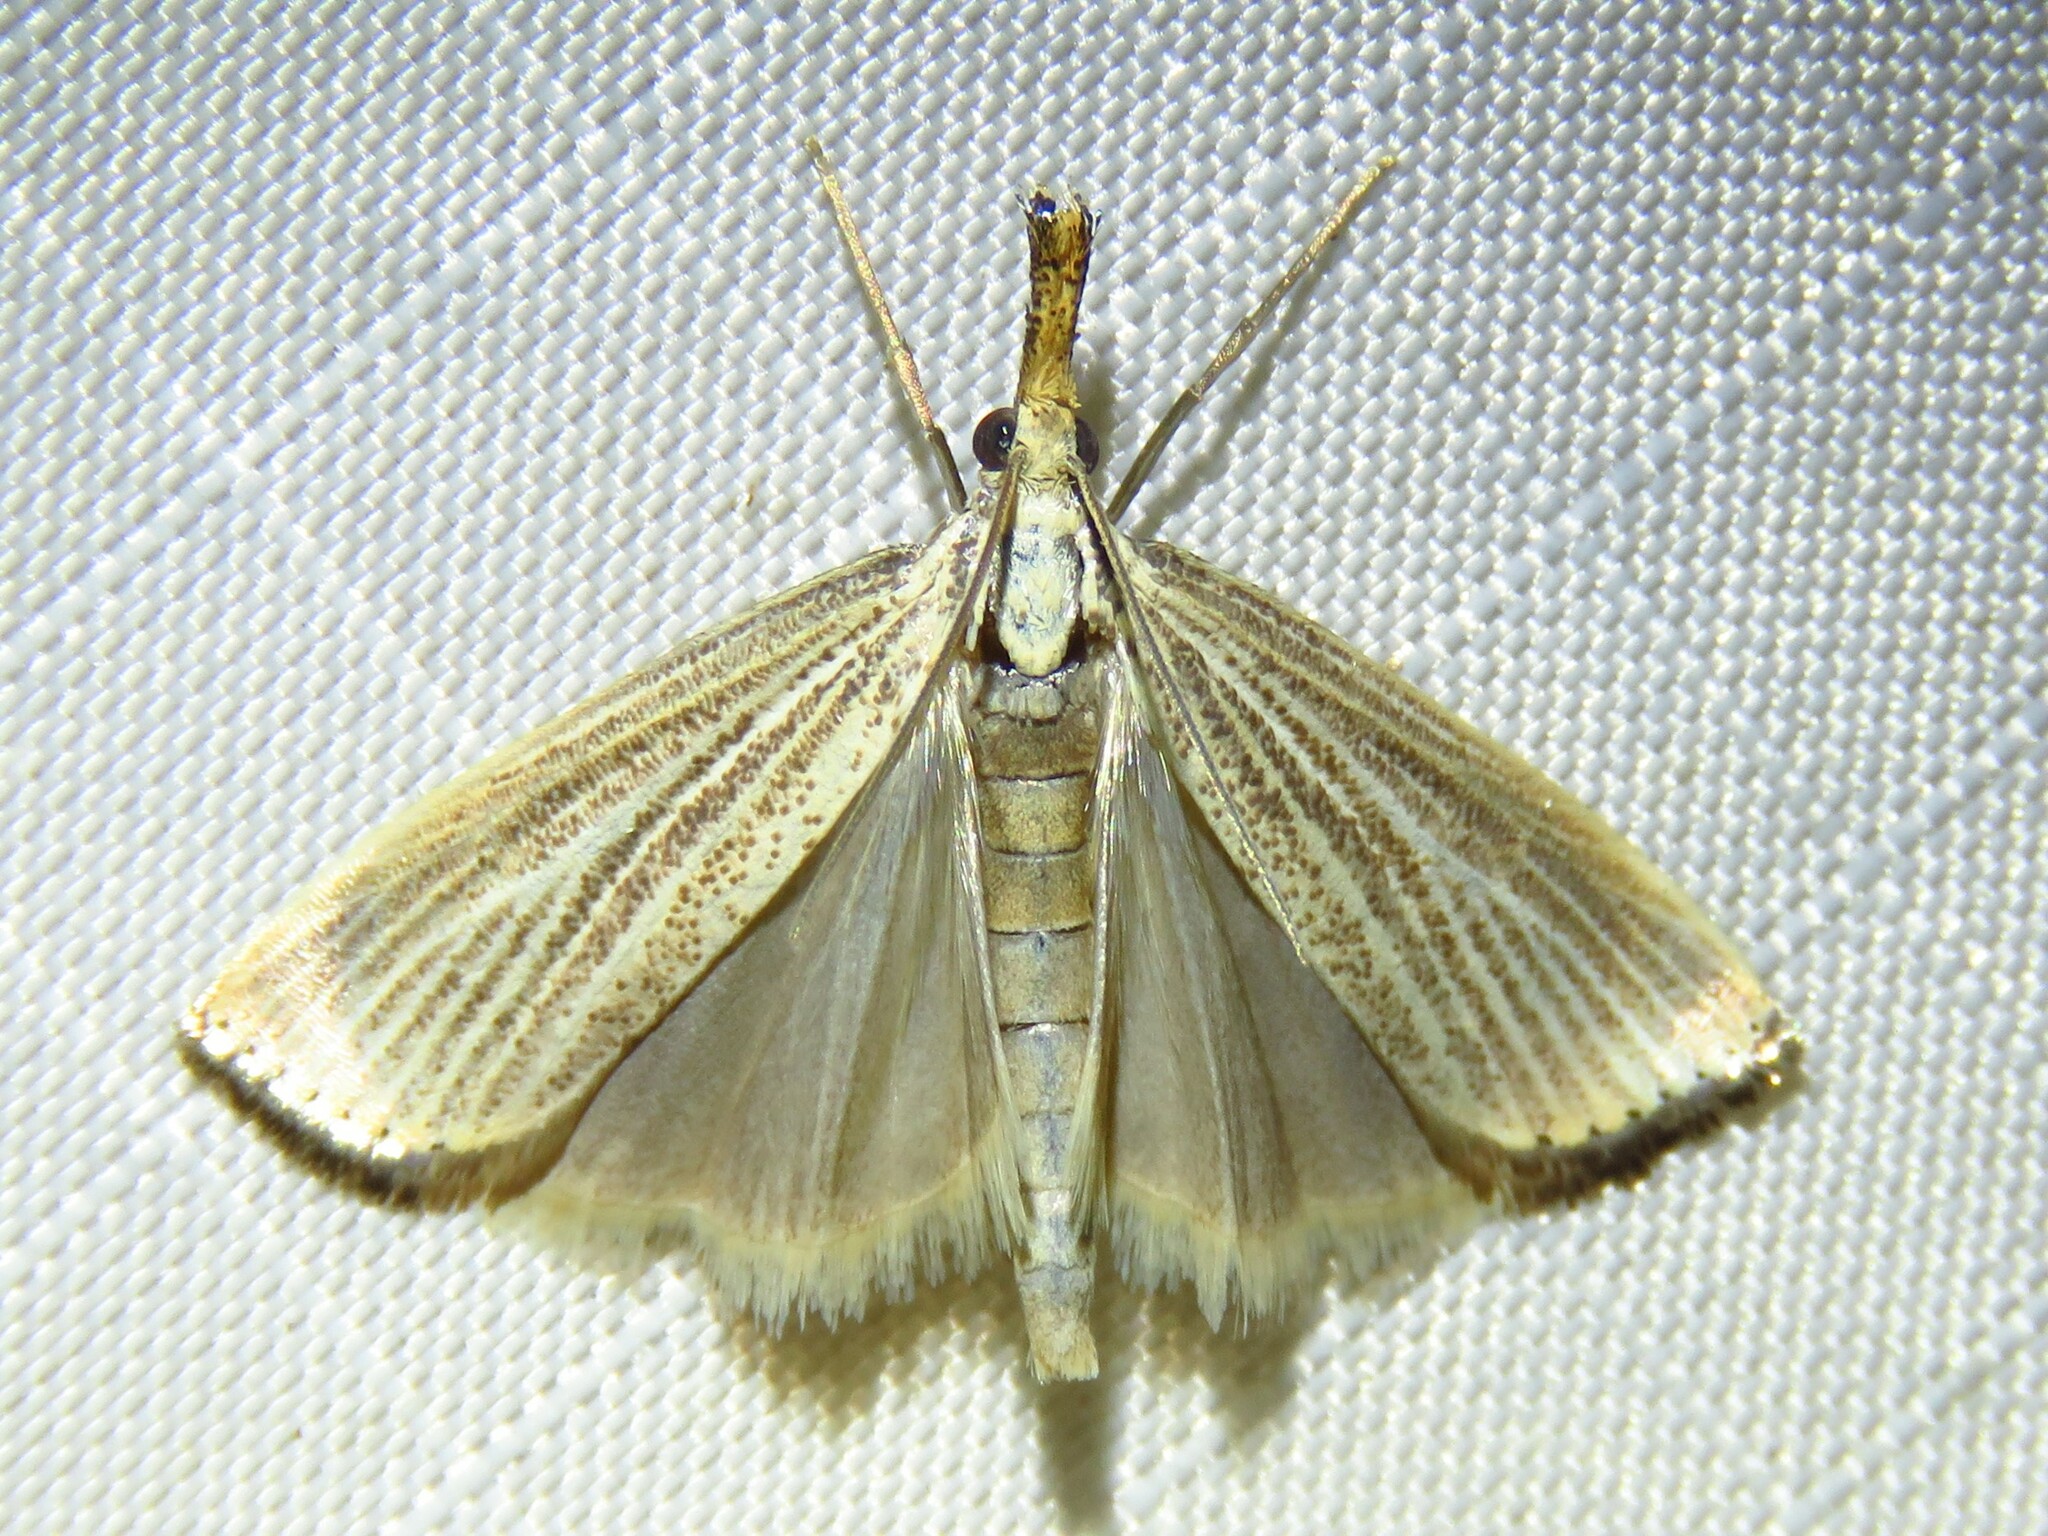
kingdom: Animalia
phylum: Arthropoda
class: Insecta
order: Lepidoptera
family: Crambidae
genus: Agriphila
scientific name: Agriphila vulgivagellus
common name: Vagabond crambus moth
